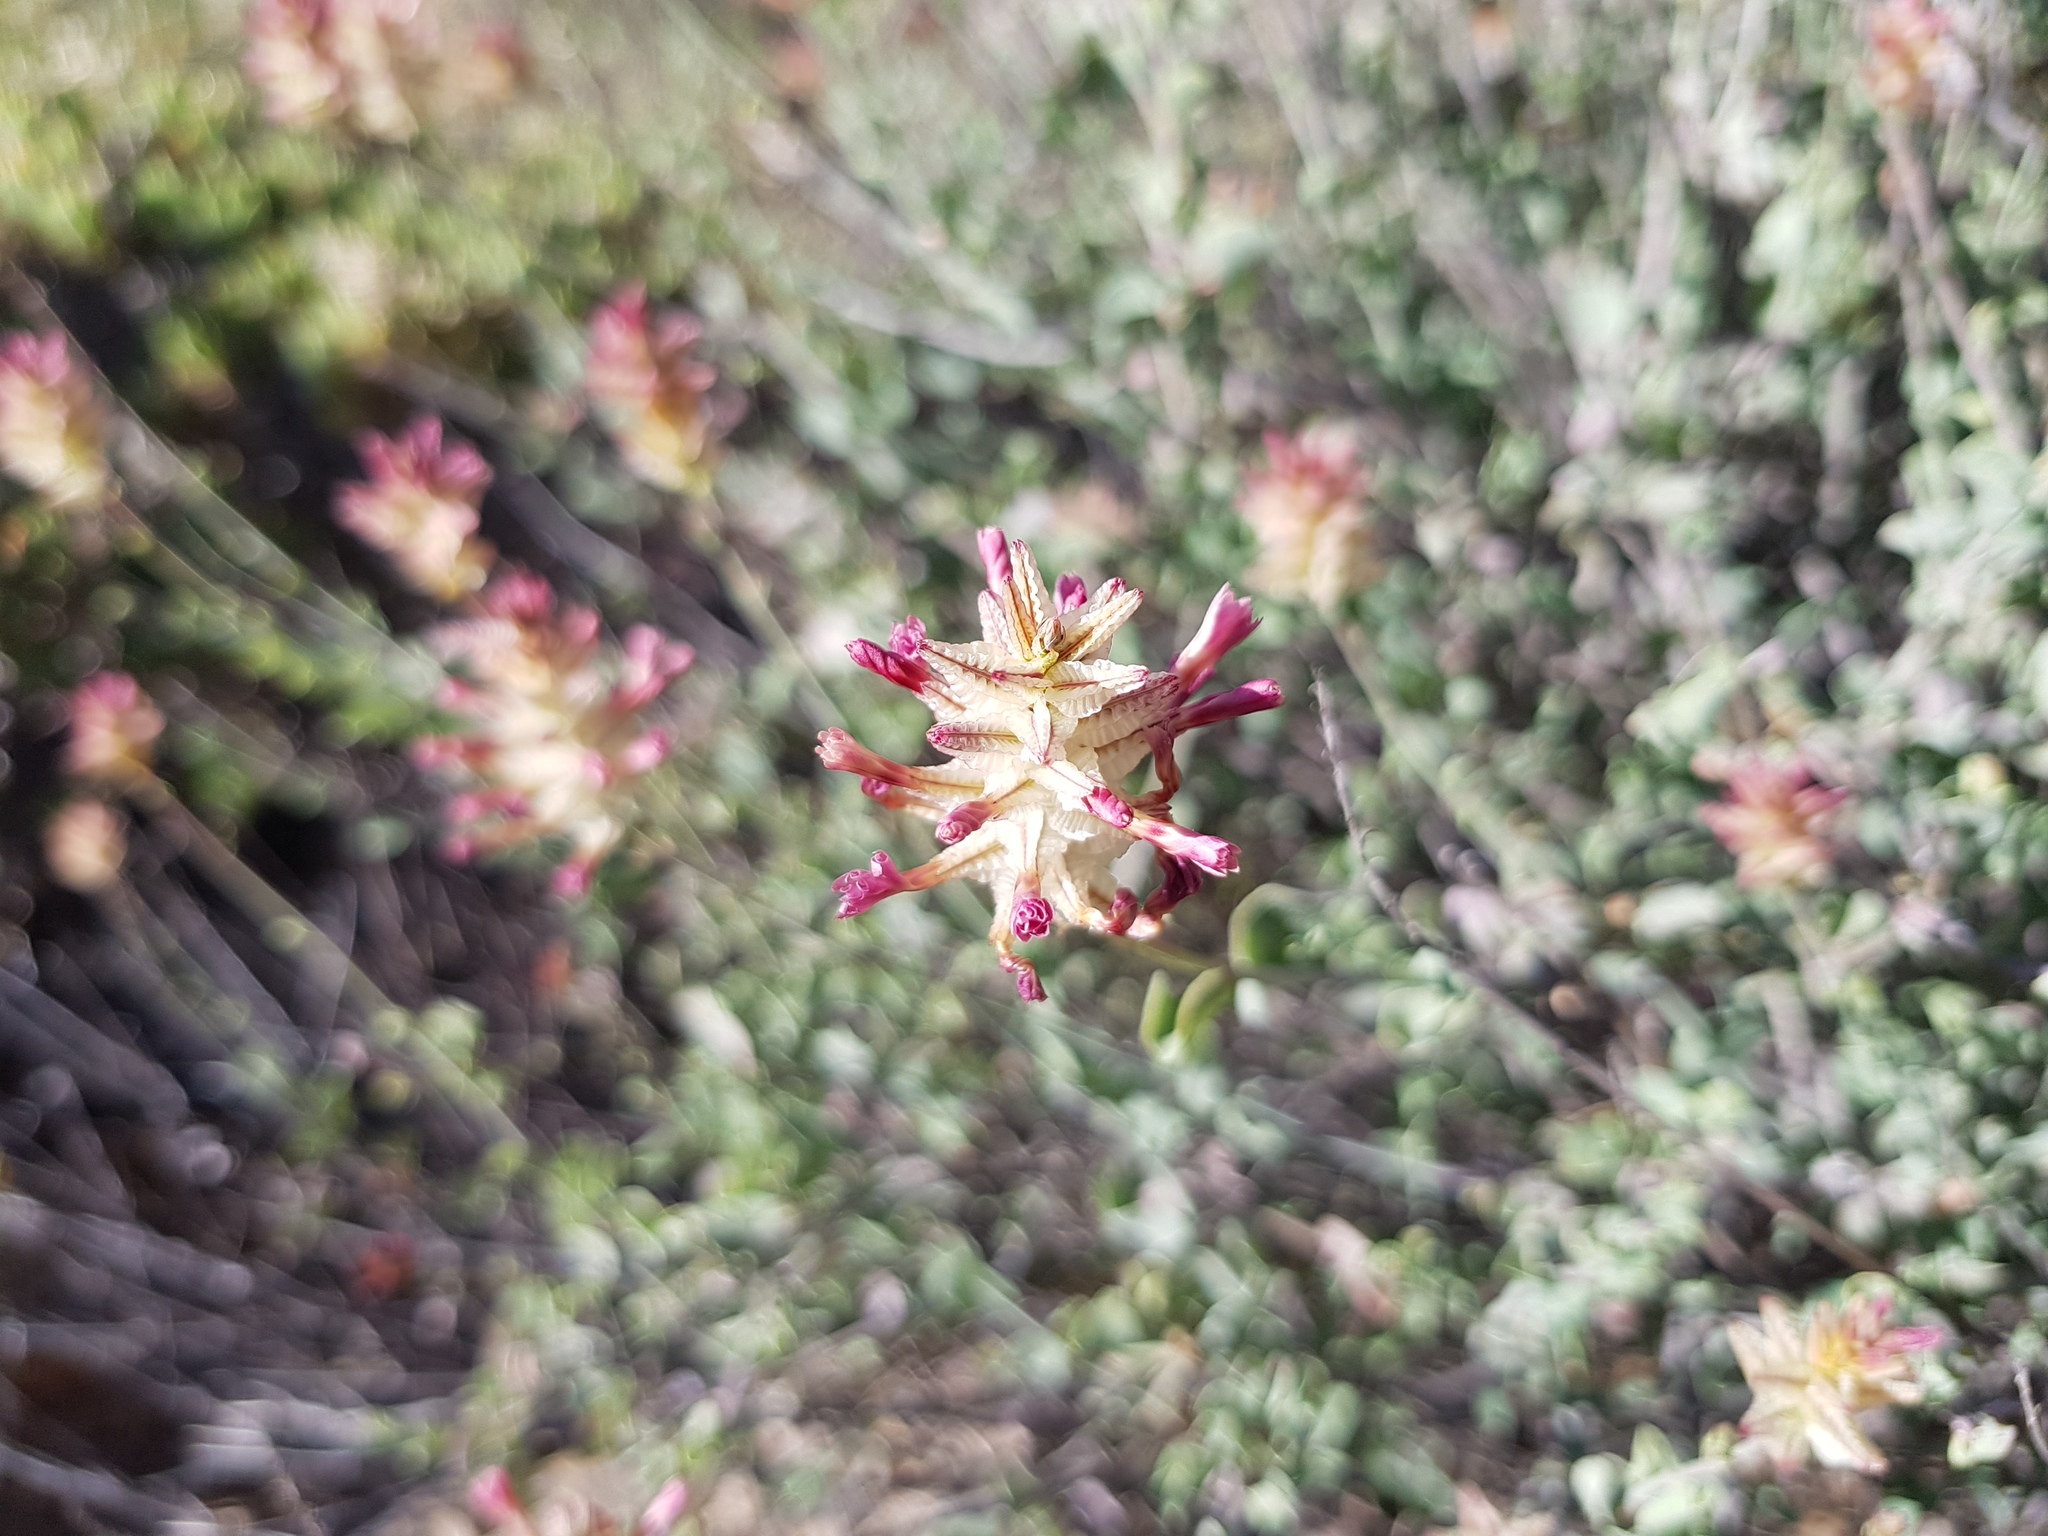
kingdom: Plantae
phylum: Tracheophyta
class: Magnoliopsida
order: Caryophyllales
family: Plumbaginaceae
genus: Dyerophytum
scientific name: Dyerophytum africanum
